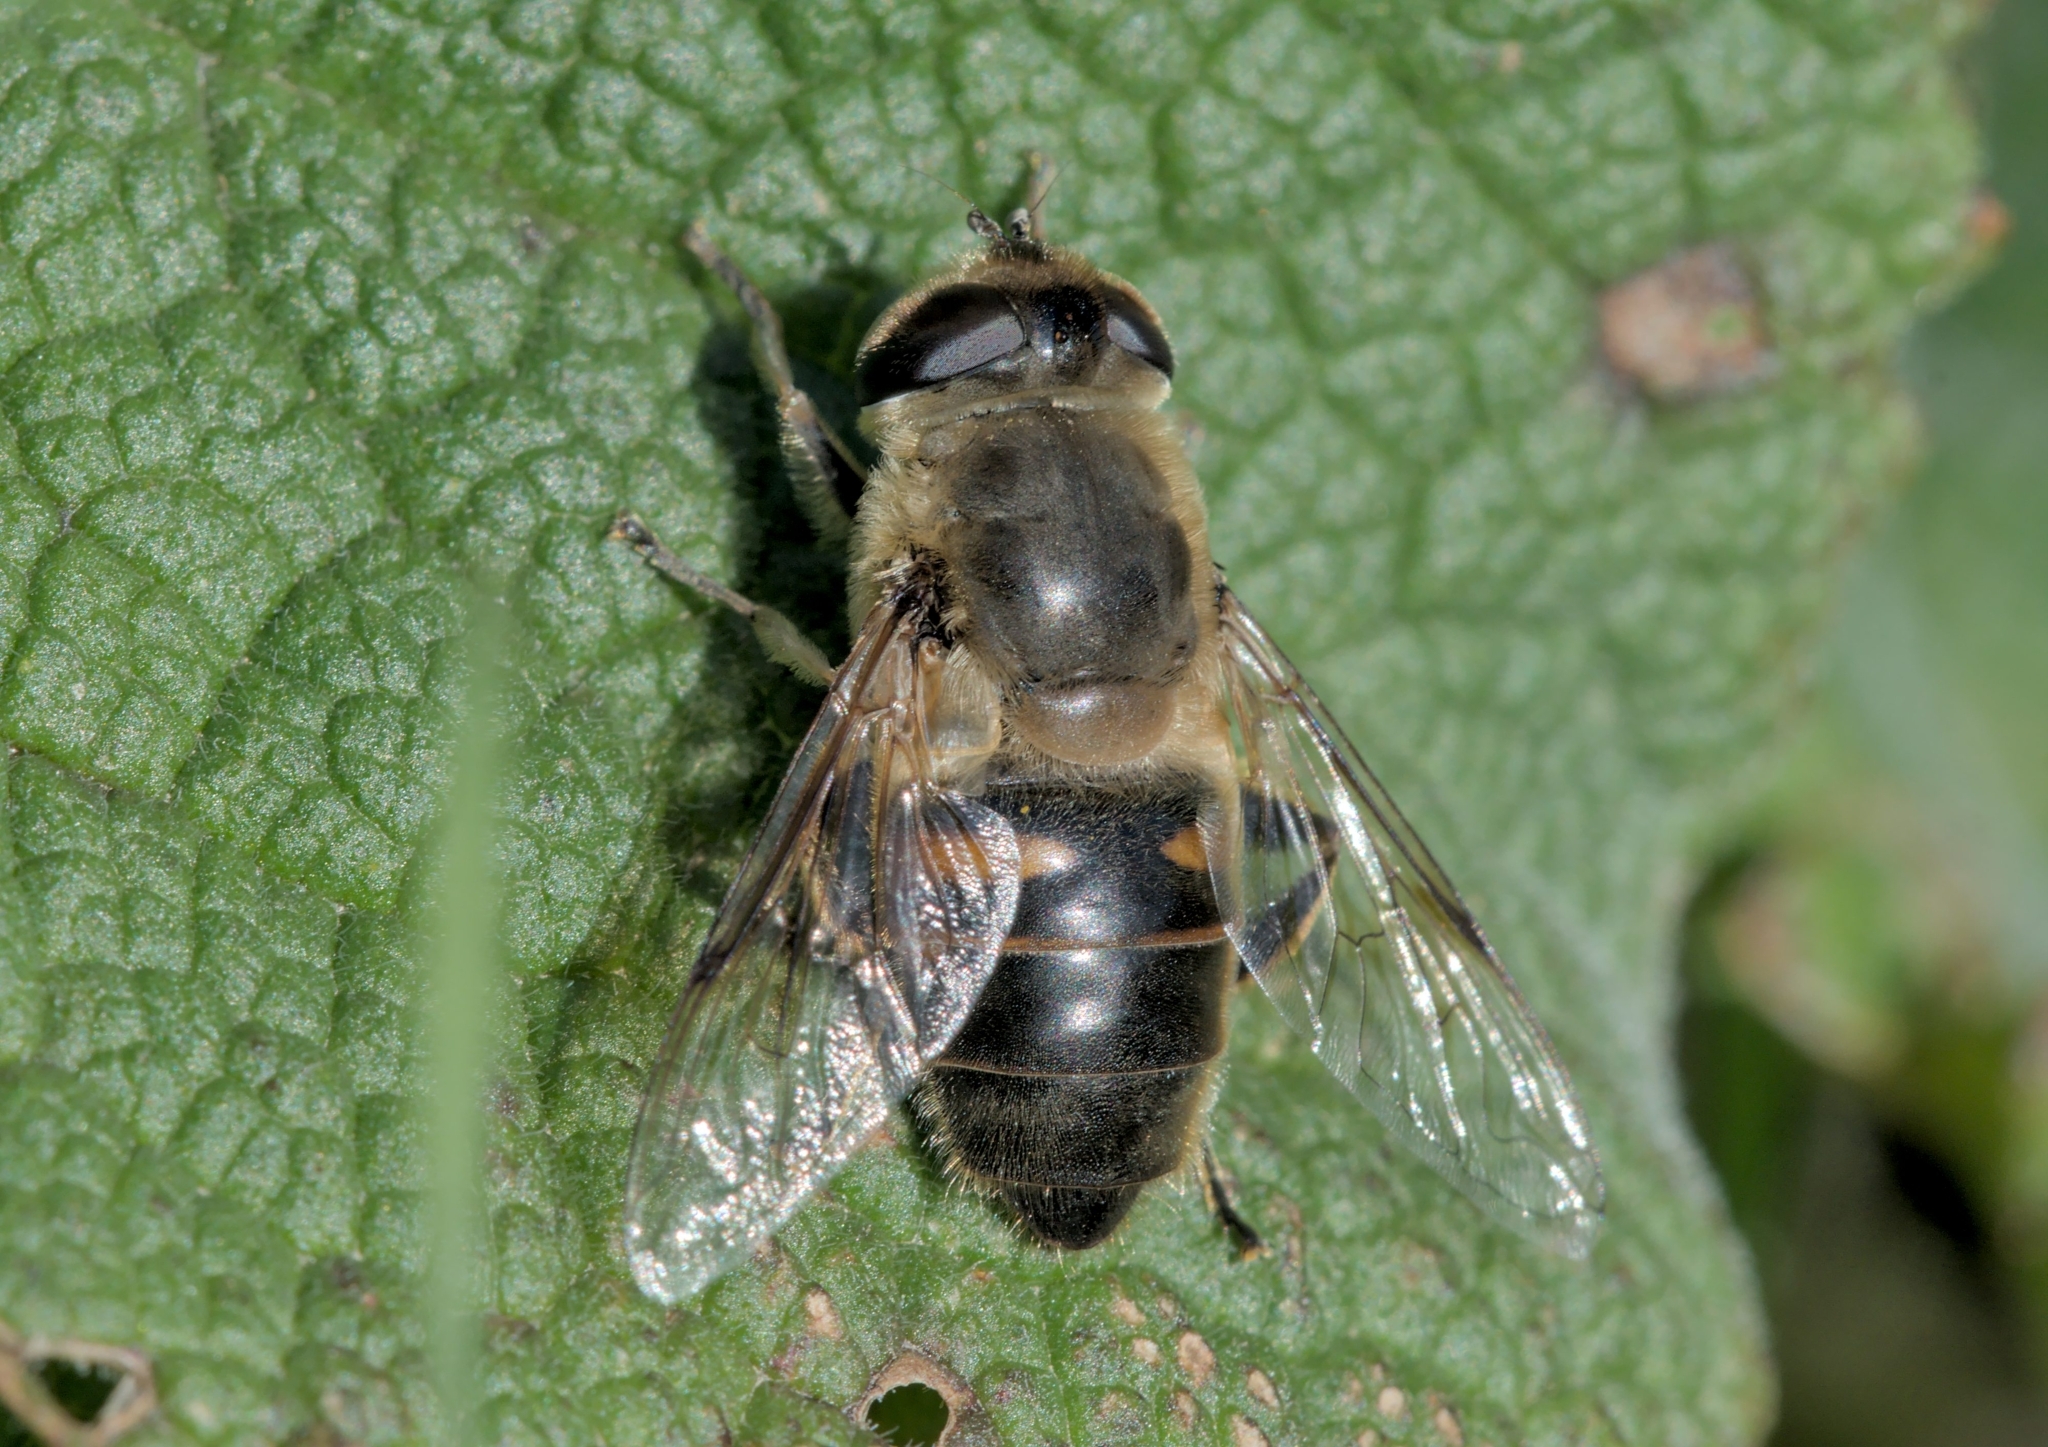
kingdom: Animalia
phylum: Arthropoda
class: Insecta
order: Diptera
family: Syrphidae
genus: Eristalis
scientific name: Eristalis tenax
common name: Drone fly
